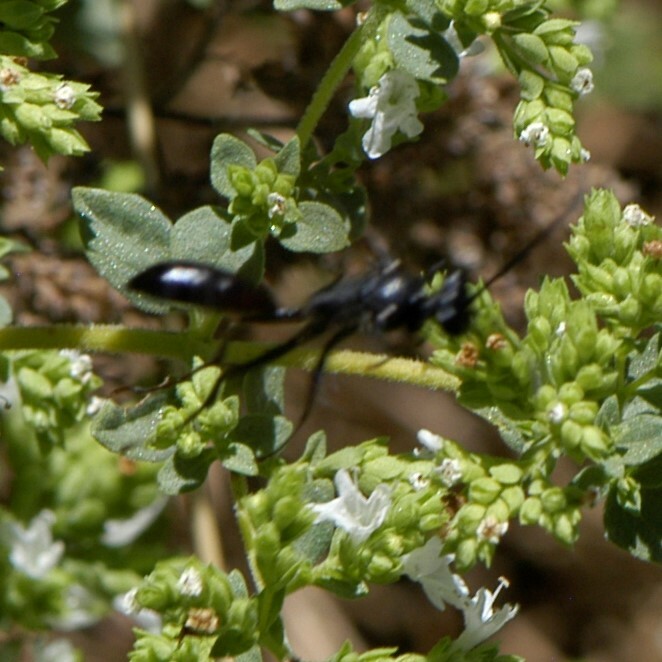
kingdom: Animalia
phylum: Arthropoda
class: Insecta
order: Hymenoptera
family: Sphecidae
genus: Sphex
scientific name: Sphex lucae
